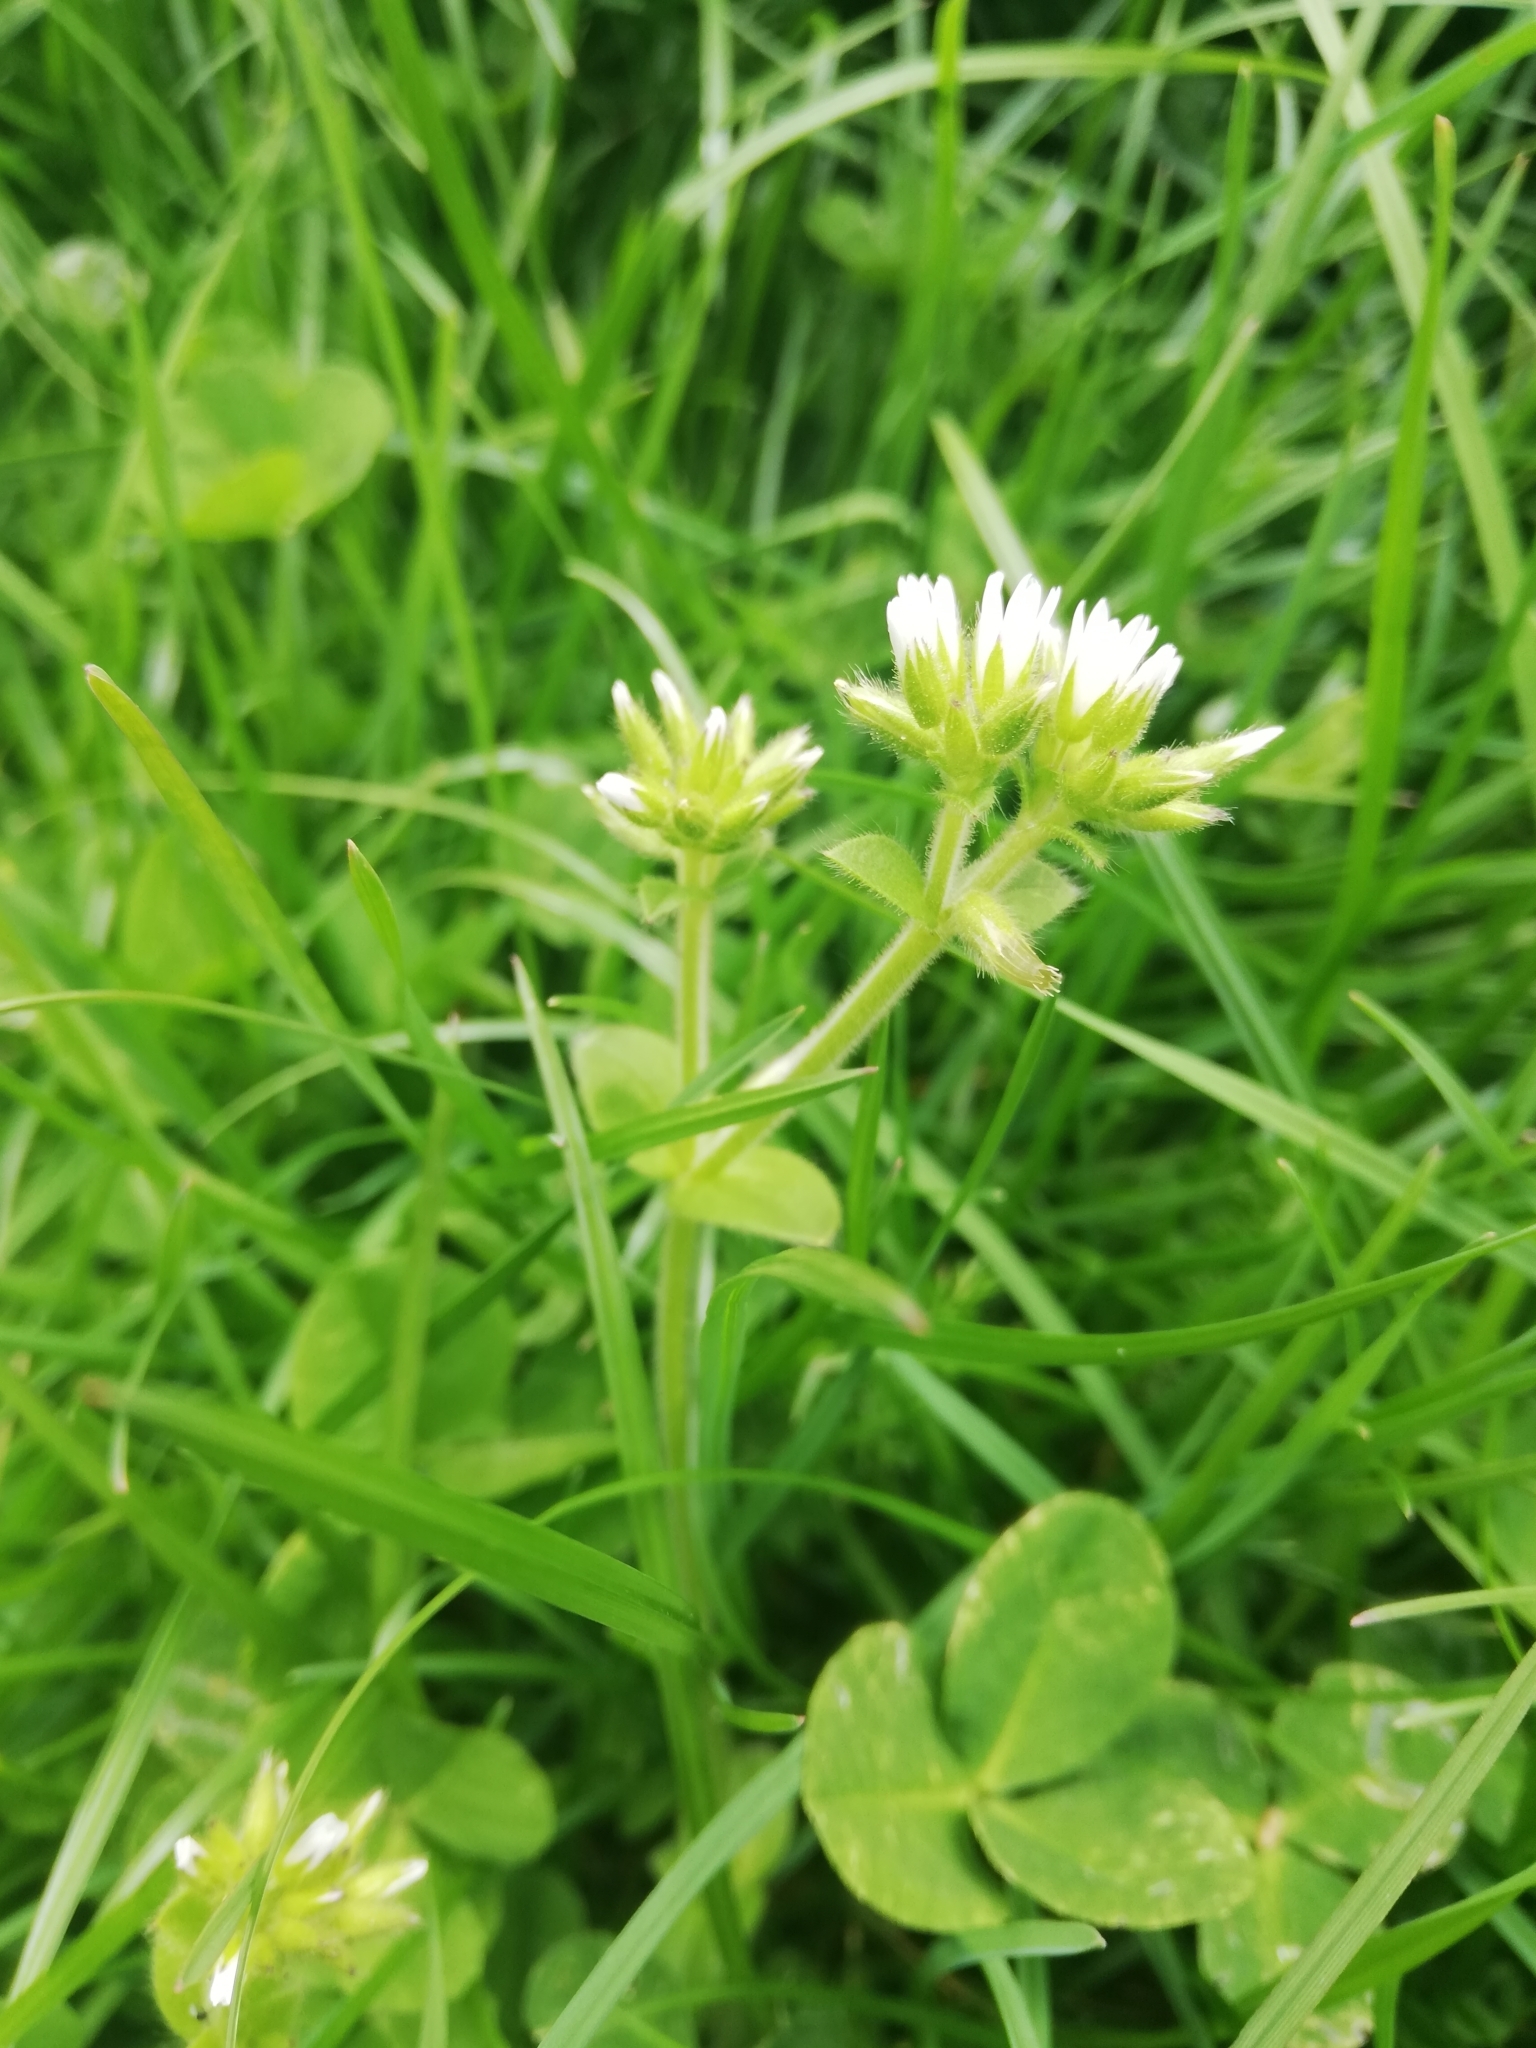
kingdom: Plantae
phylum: Tracheophyta
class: Magnoliopsida
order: Caryophyllales
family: Caryophyllaceae
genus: Cerastium
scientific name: Cerastium glomeratum
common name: Sticky chickweed
